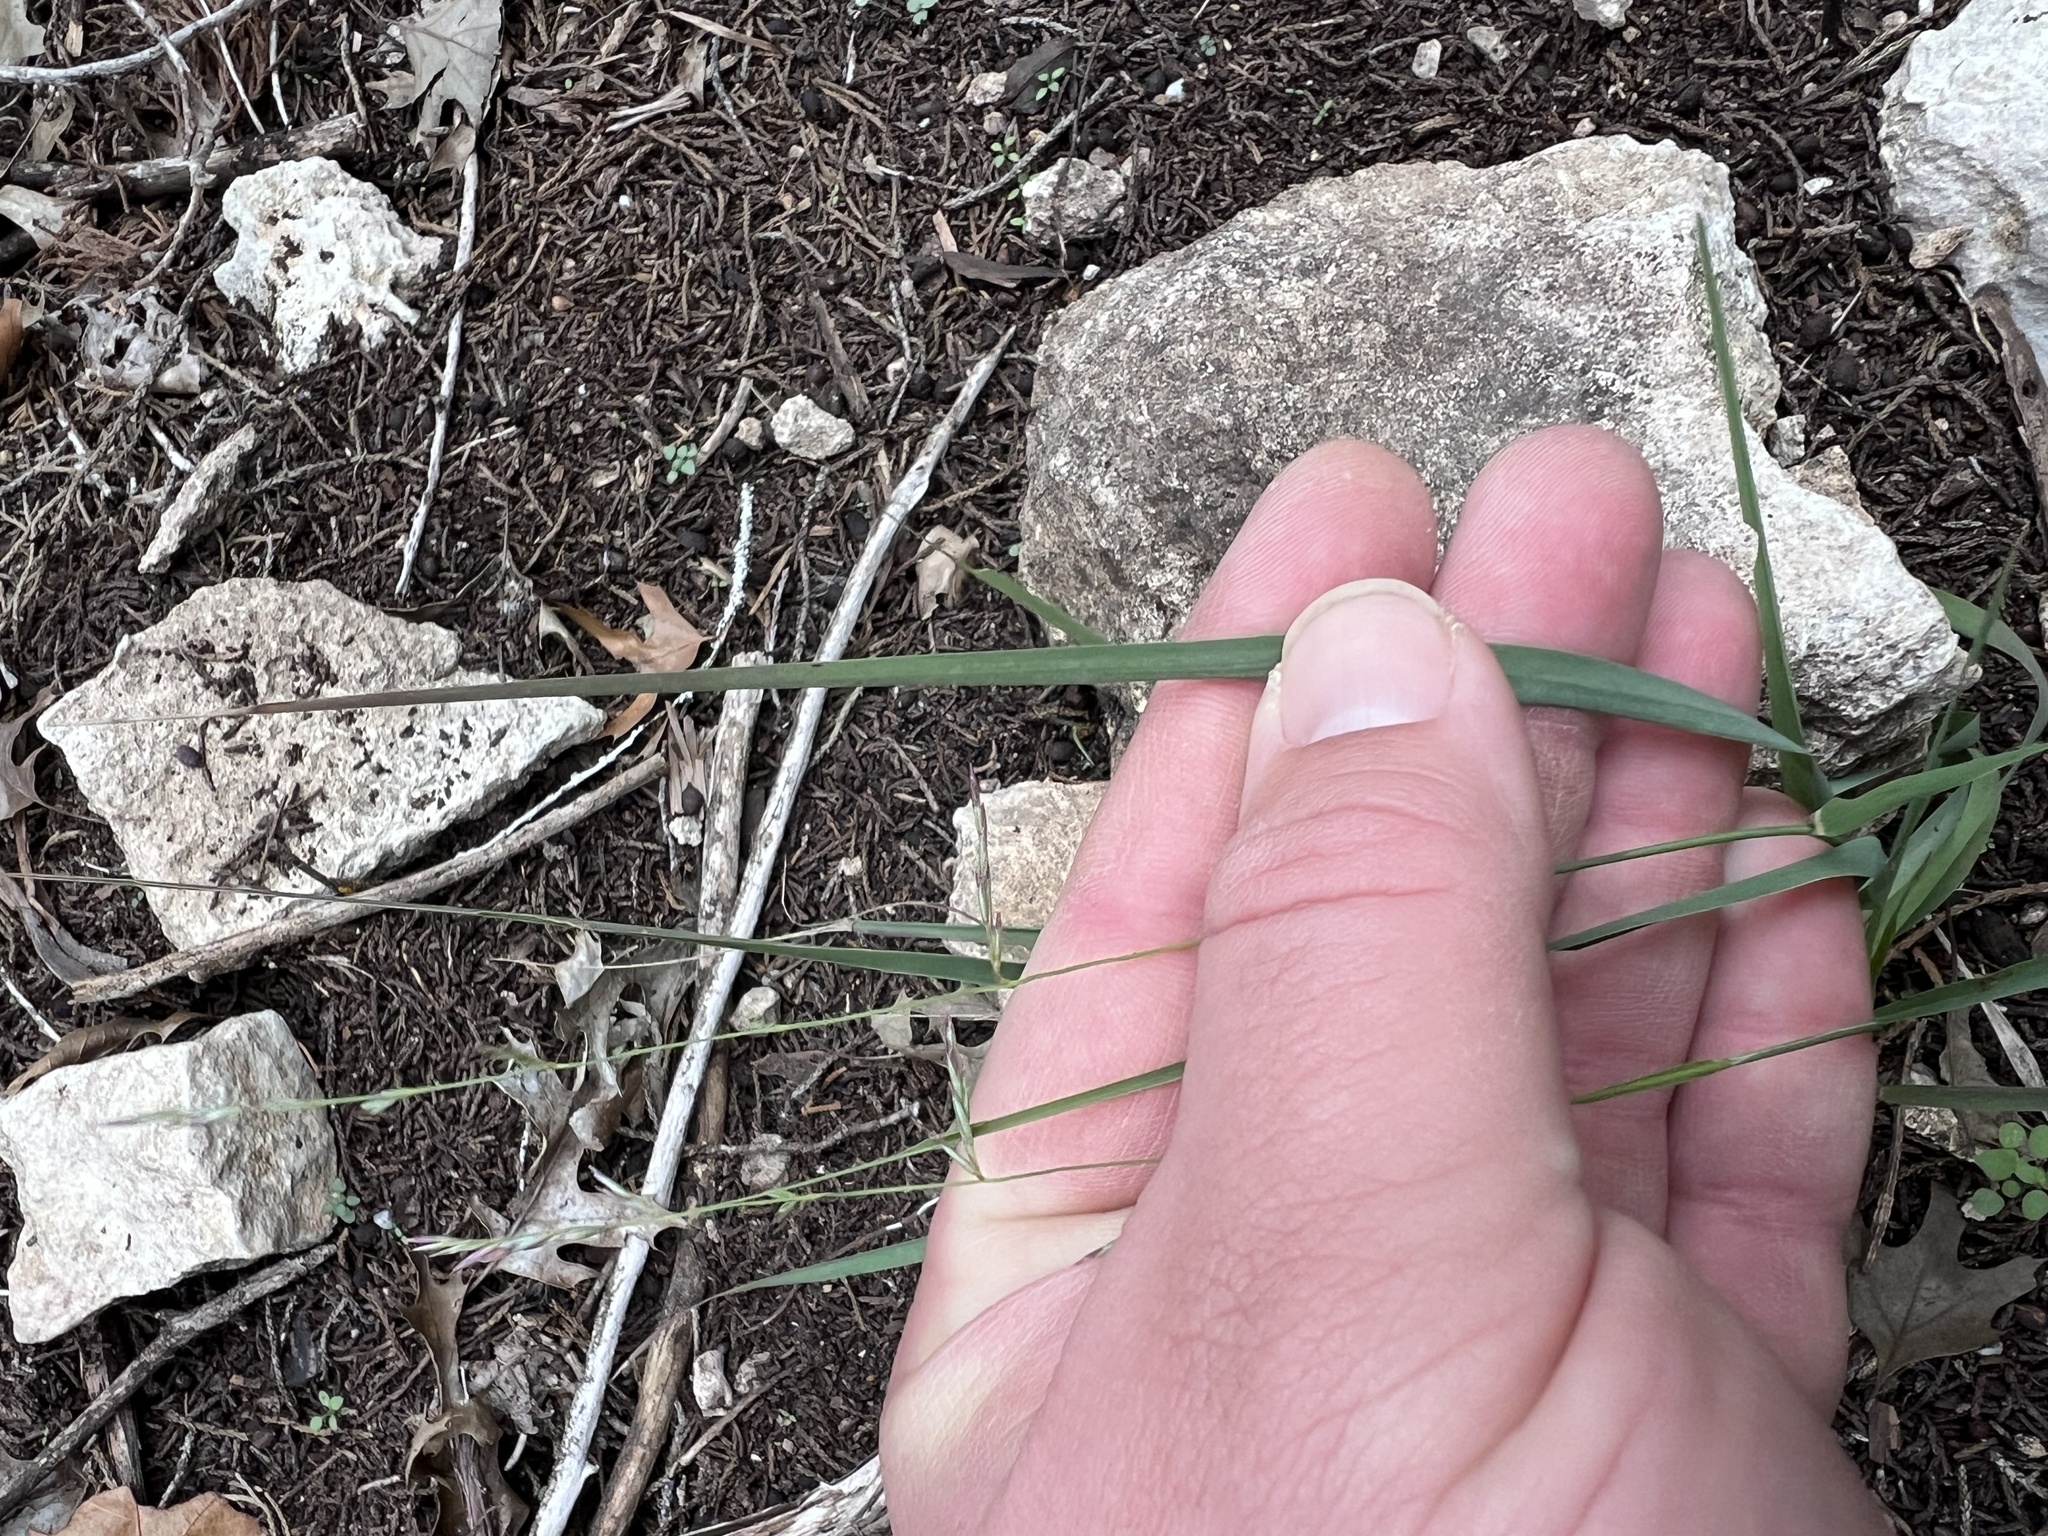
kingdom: Plantae
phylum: Tracheophyta
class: Liliopsida
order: Poales
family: Poaceae
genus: Tridentopsis
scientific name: Tridentopsis buckleyana
